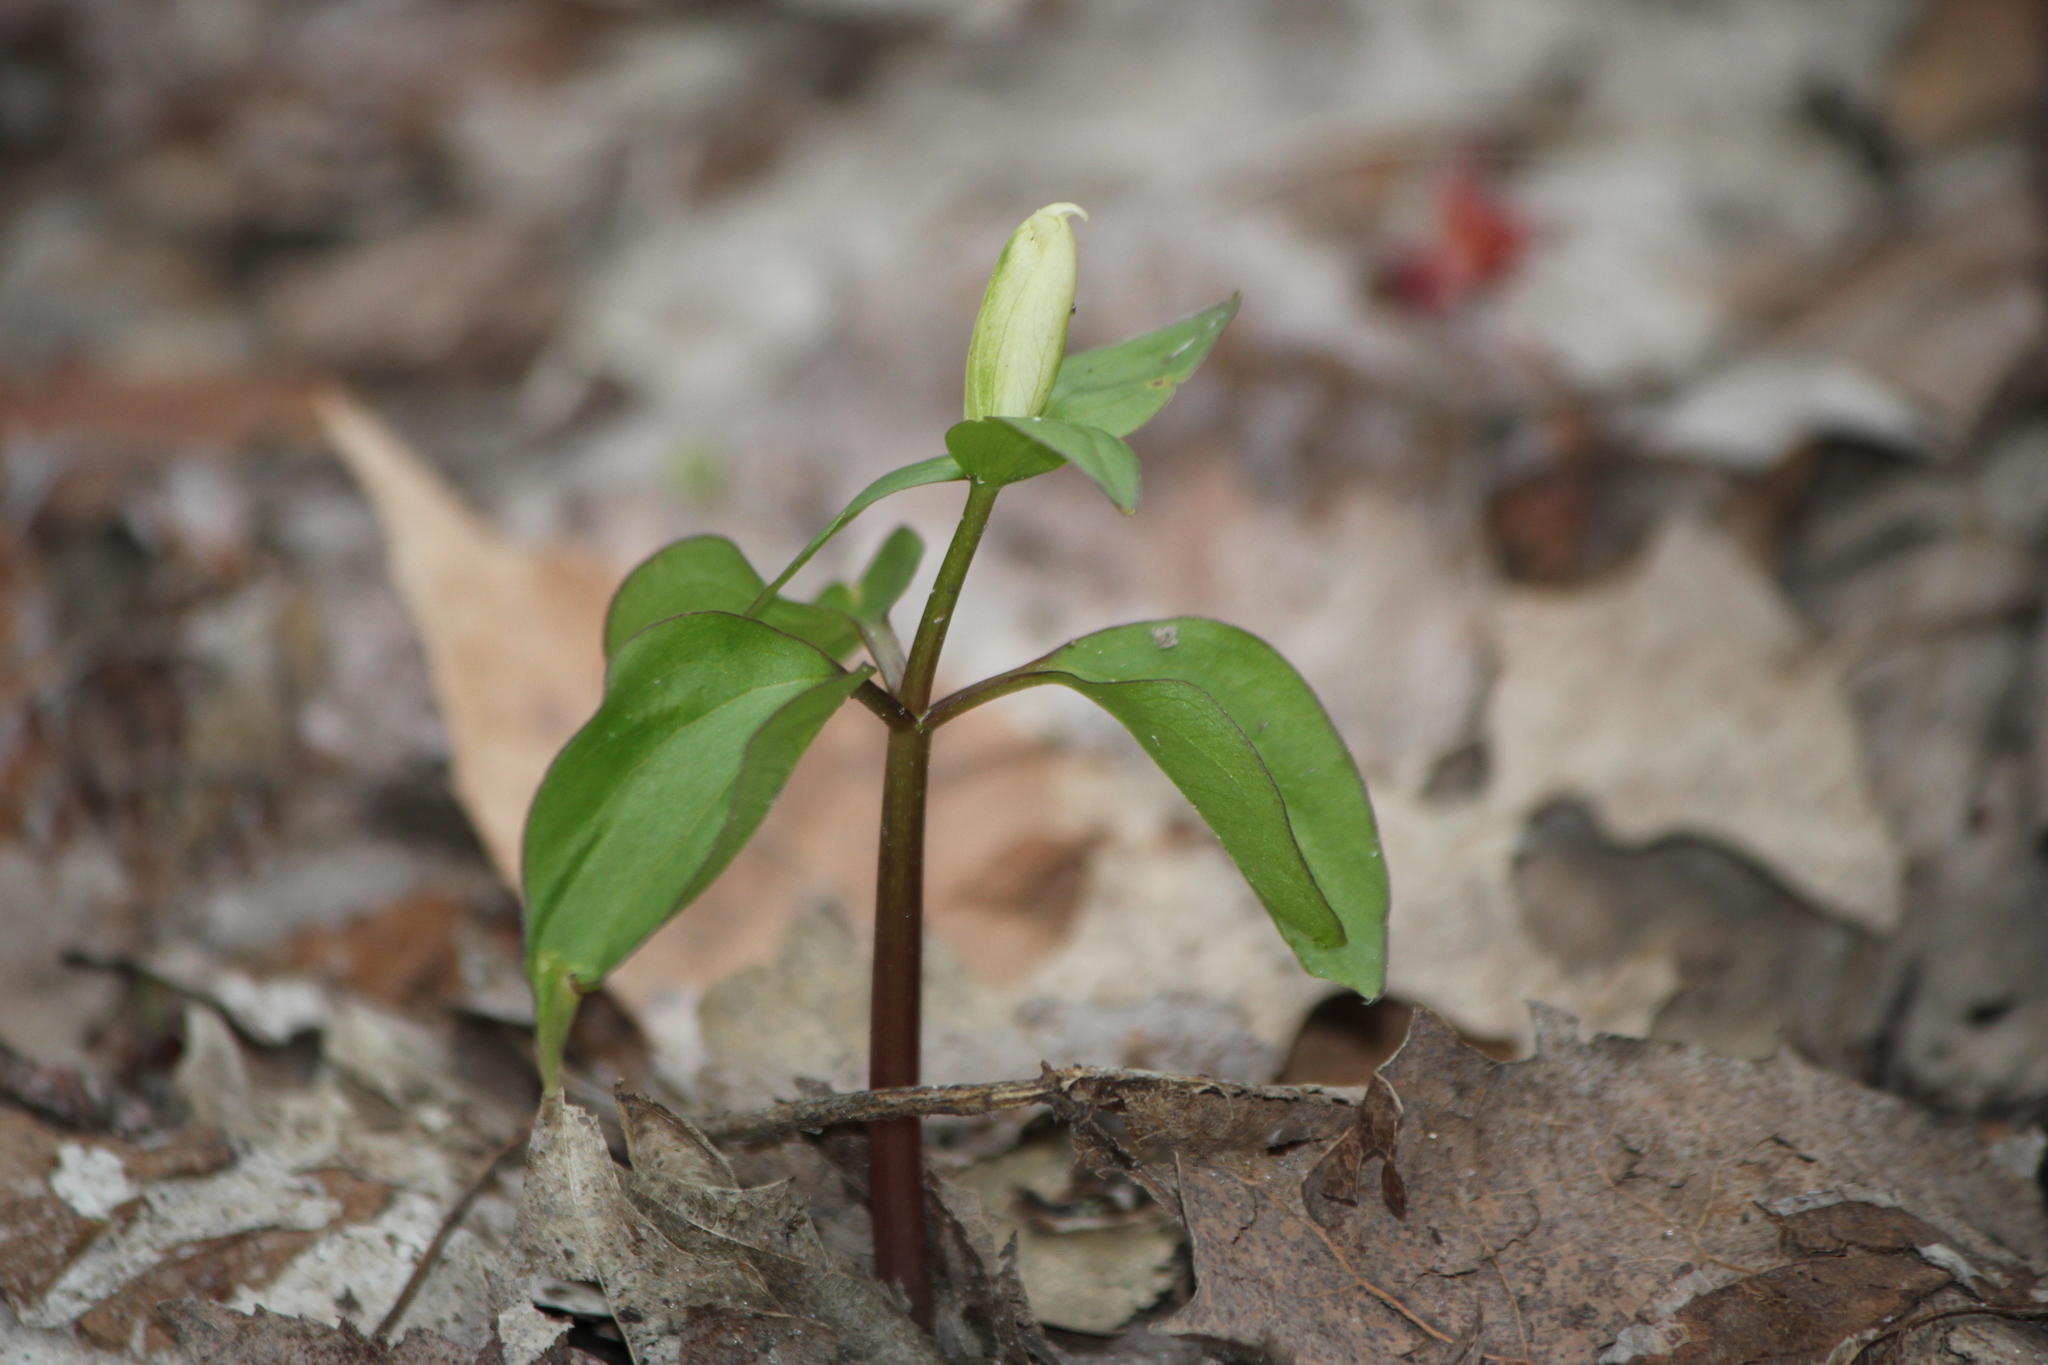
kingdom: Plantae
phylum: Tracheophyta
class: Liliopsida
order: Liliales
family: Melanthiaceae
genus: Trillium
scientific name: Trillium grandiflorum
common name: Great white trillium
